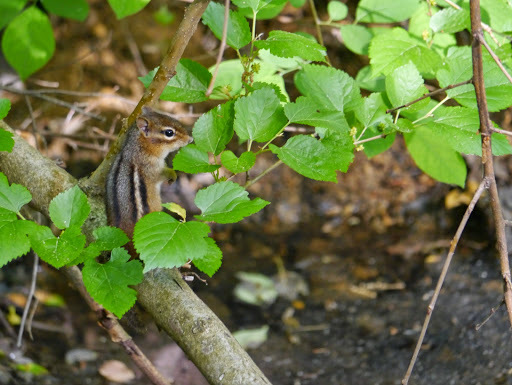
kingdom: Animalia
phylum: Chordata
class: Mammalia
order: Rodentia
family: Sciuridae
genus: Tamias
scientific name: Tamias striatus
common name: Eastern chipmunk
